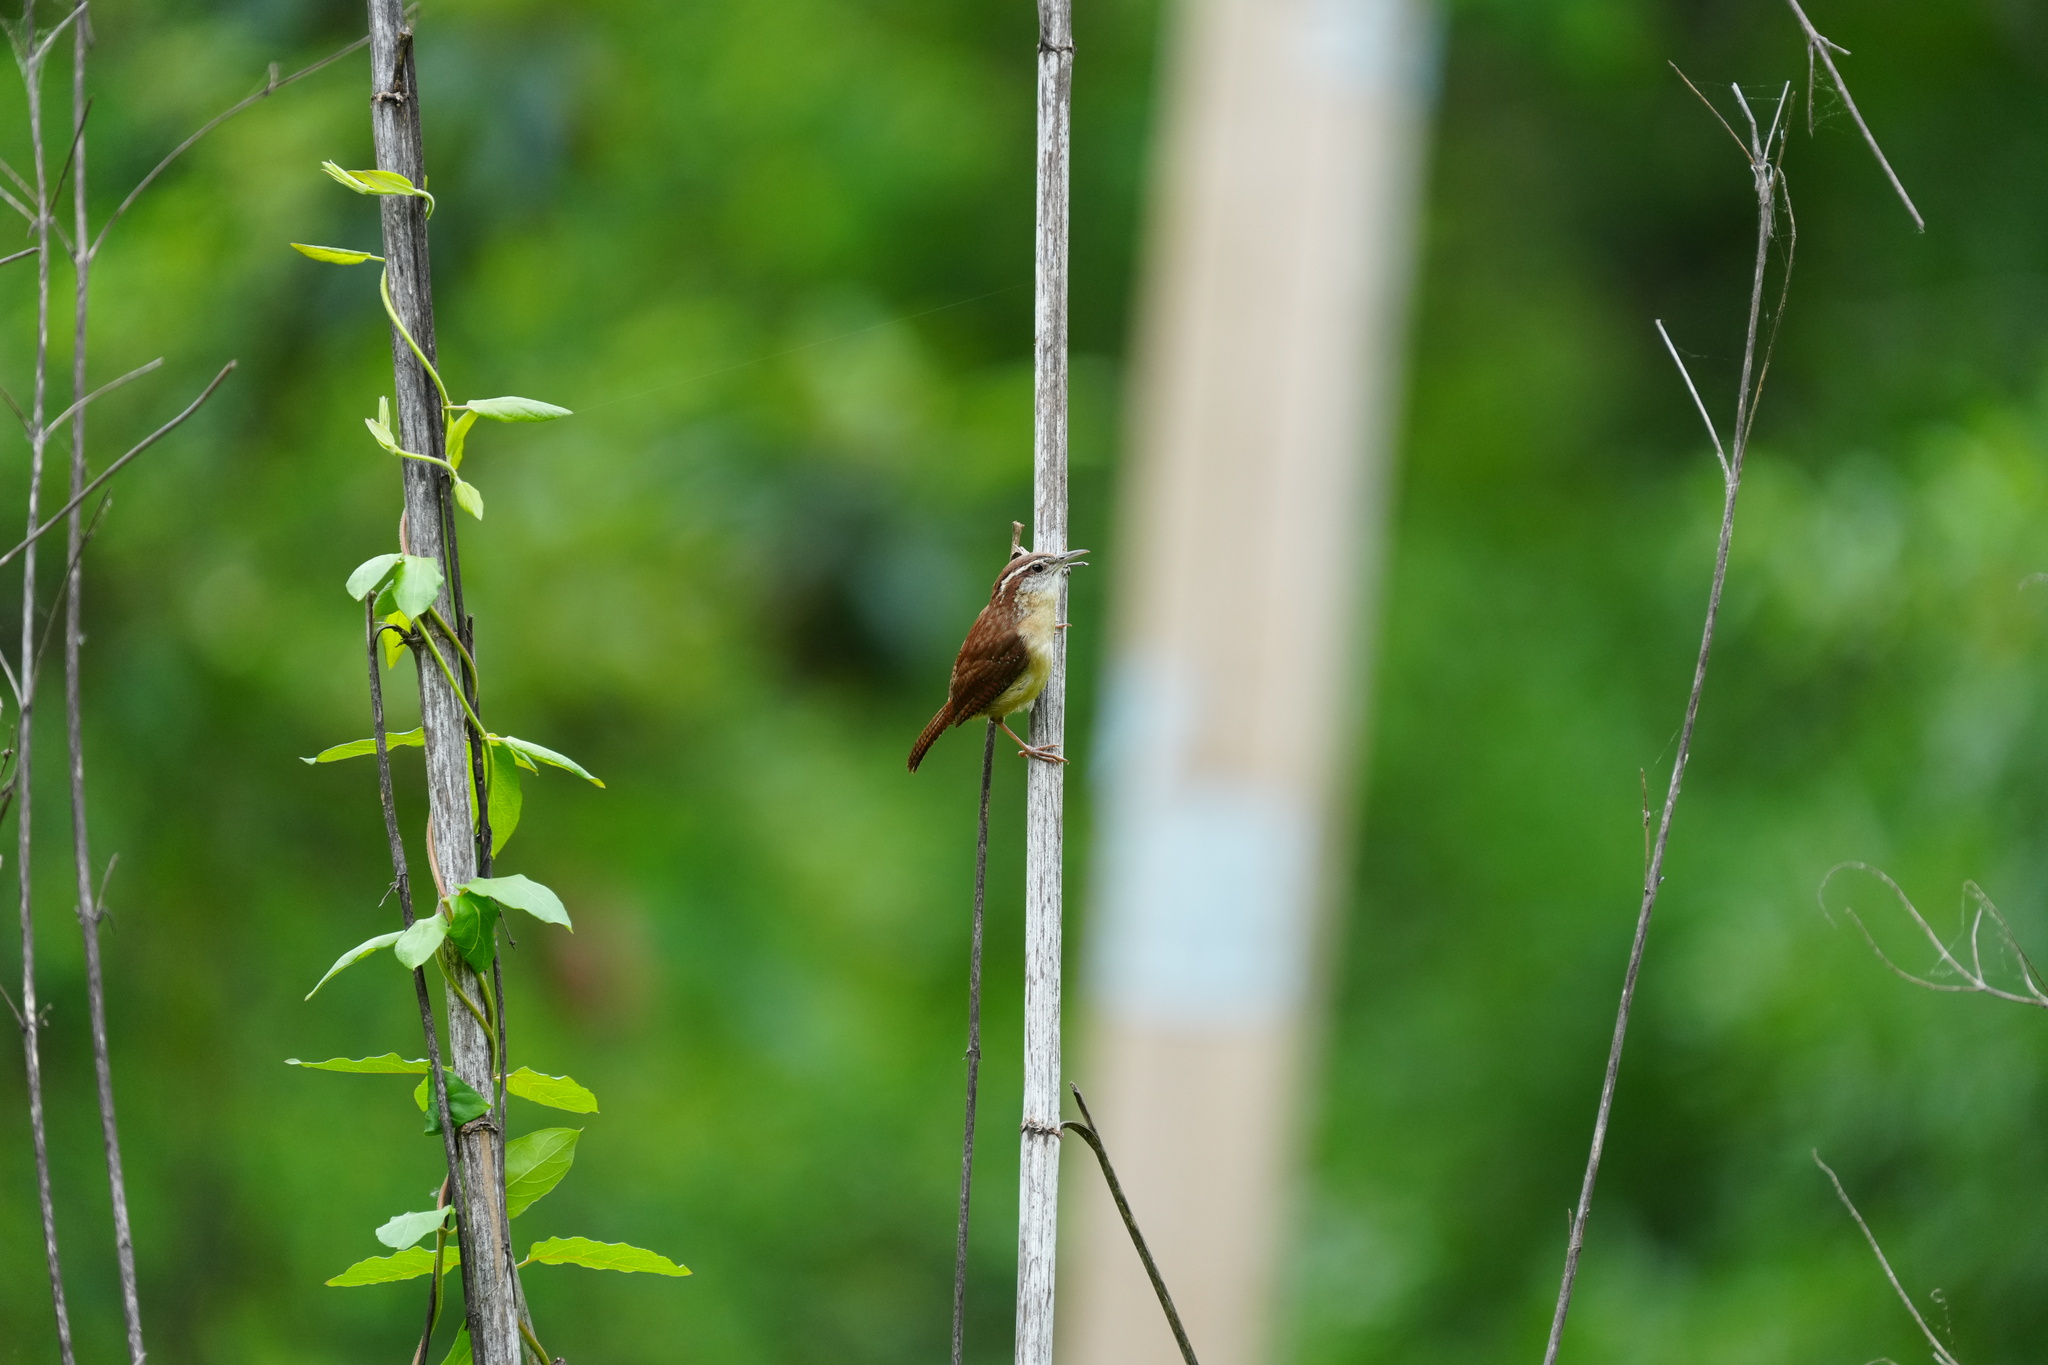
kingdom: Animalia
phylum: Chordata
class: Aves
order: Passeriformes
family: Troglodytidae
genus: Thryothorus
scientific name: Thryothorus ludovicianus
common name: Carolina wren
